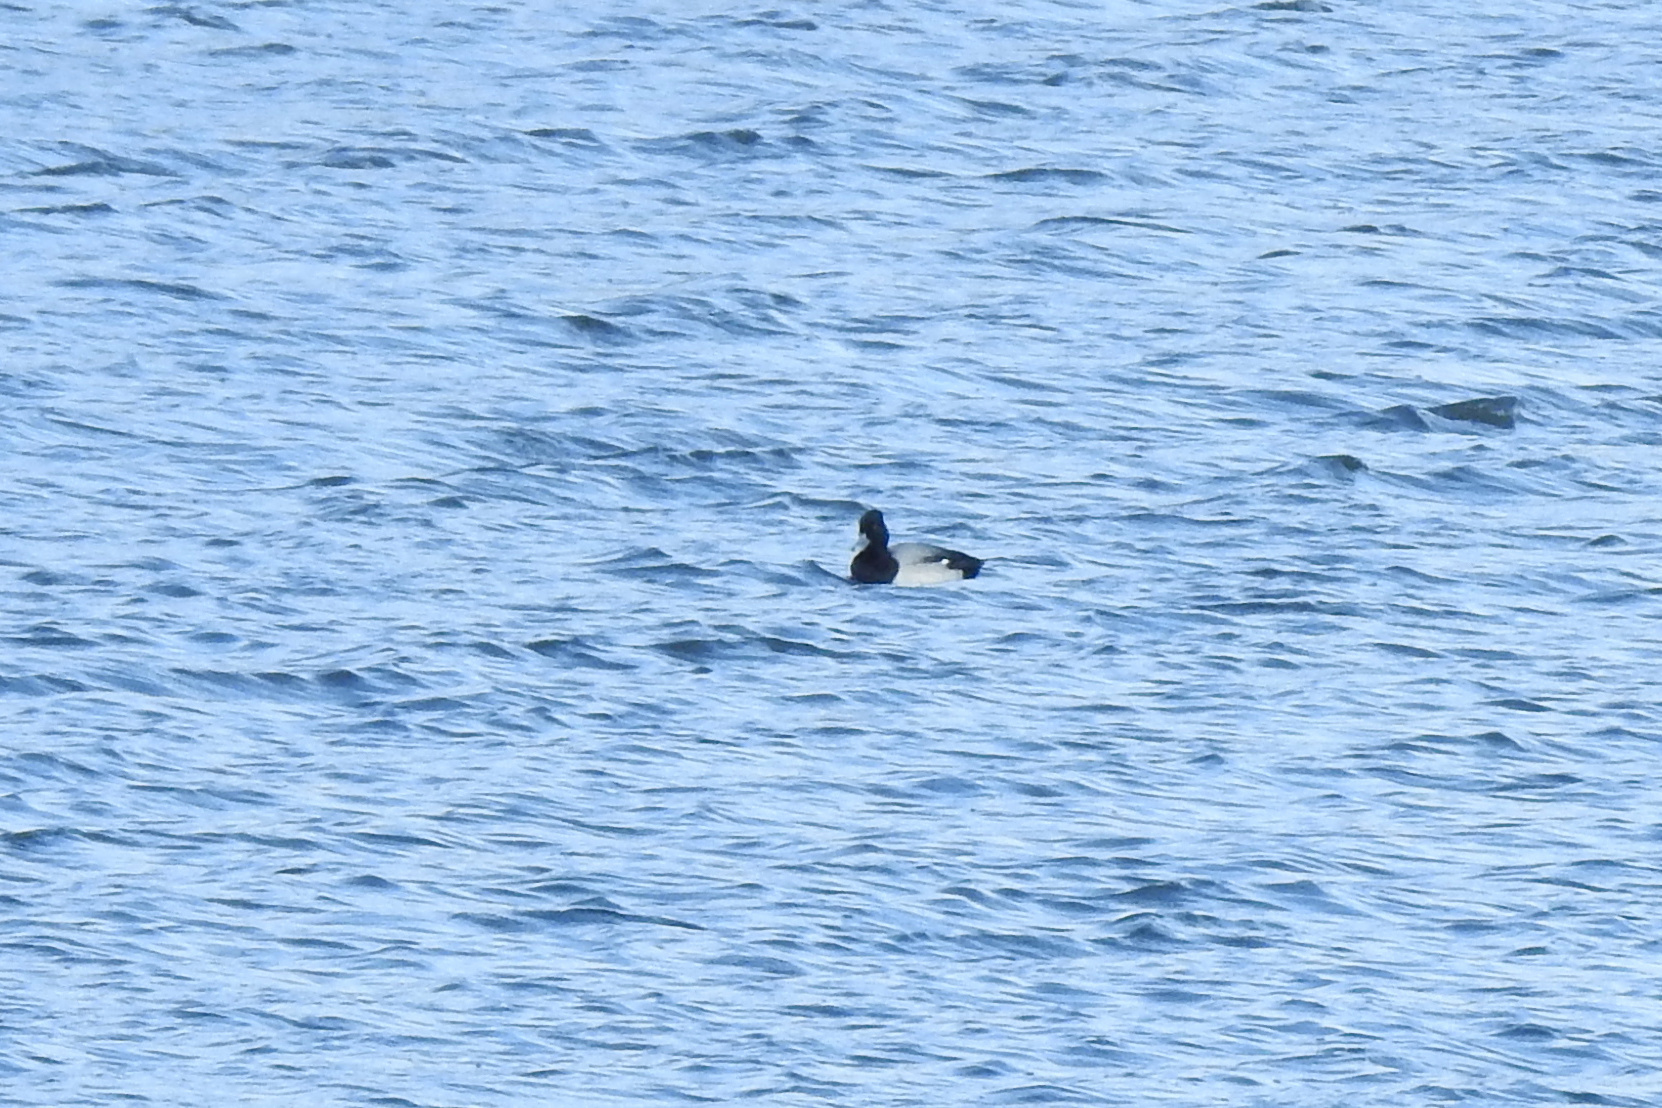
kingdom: Animalia
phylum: Chordata
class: Aves
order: Anseriformes
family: Anatidae
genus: Aythya
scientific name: Aythya affinis
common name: Lesser scaup
